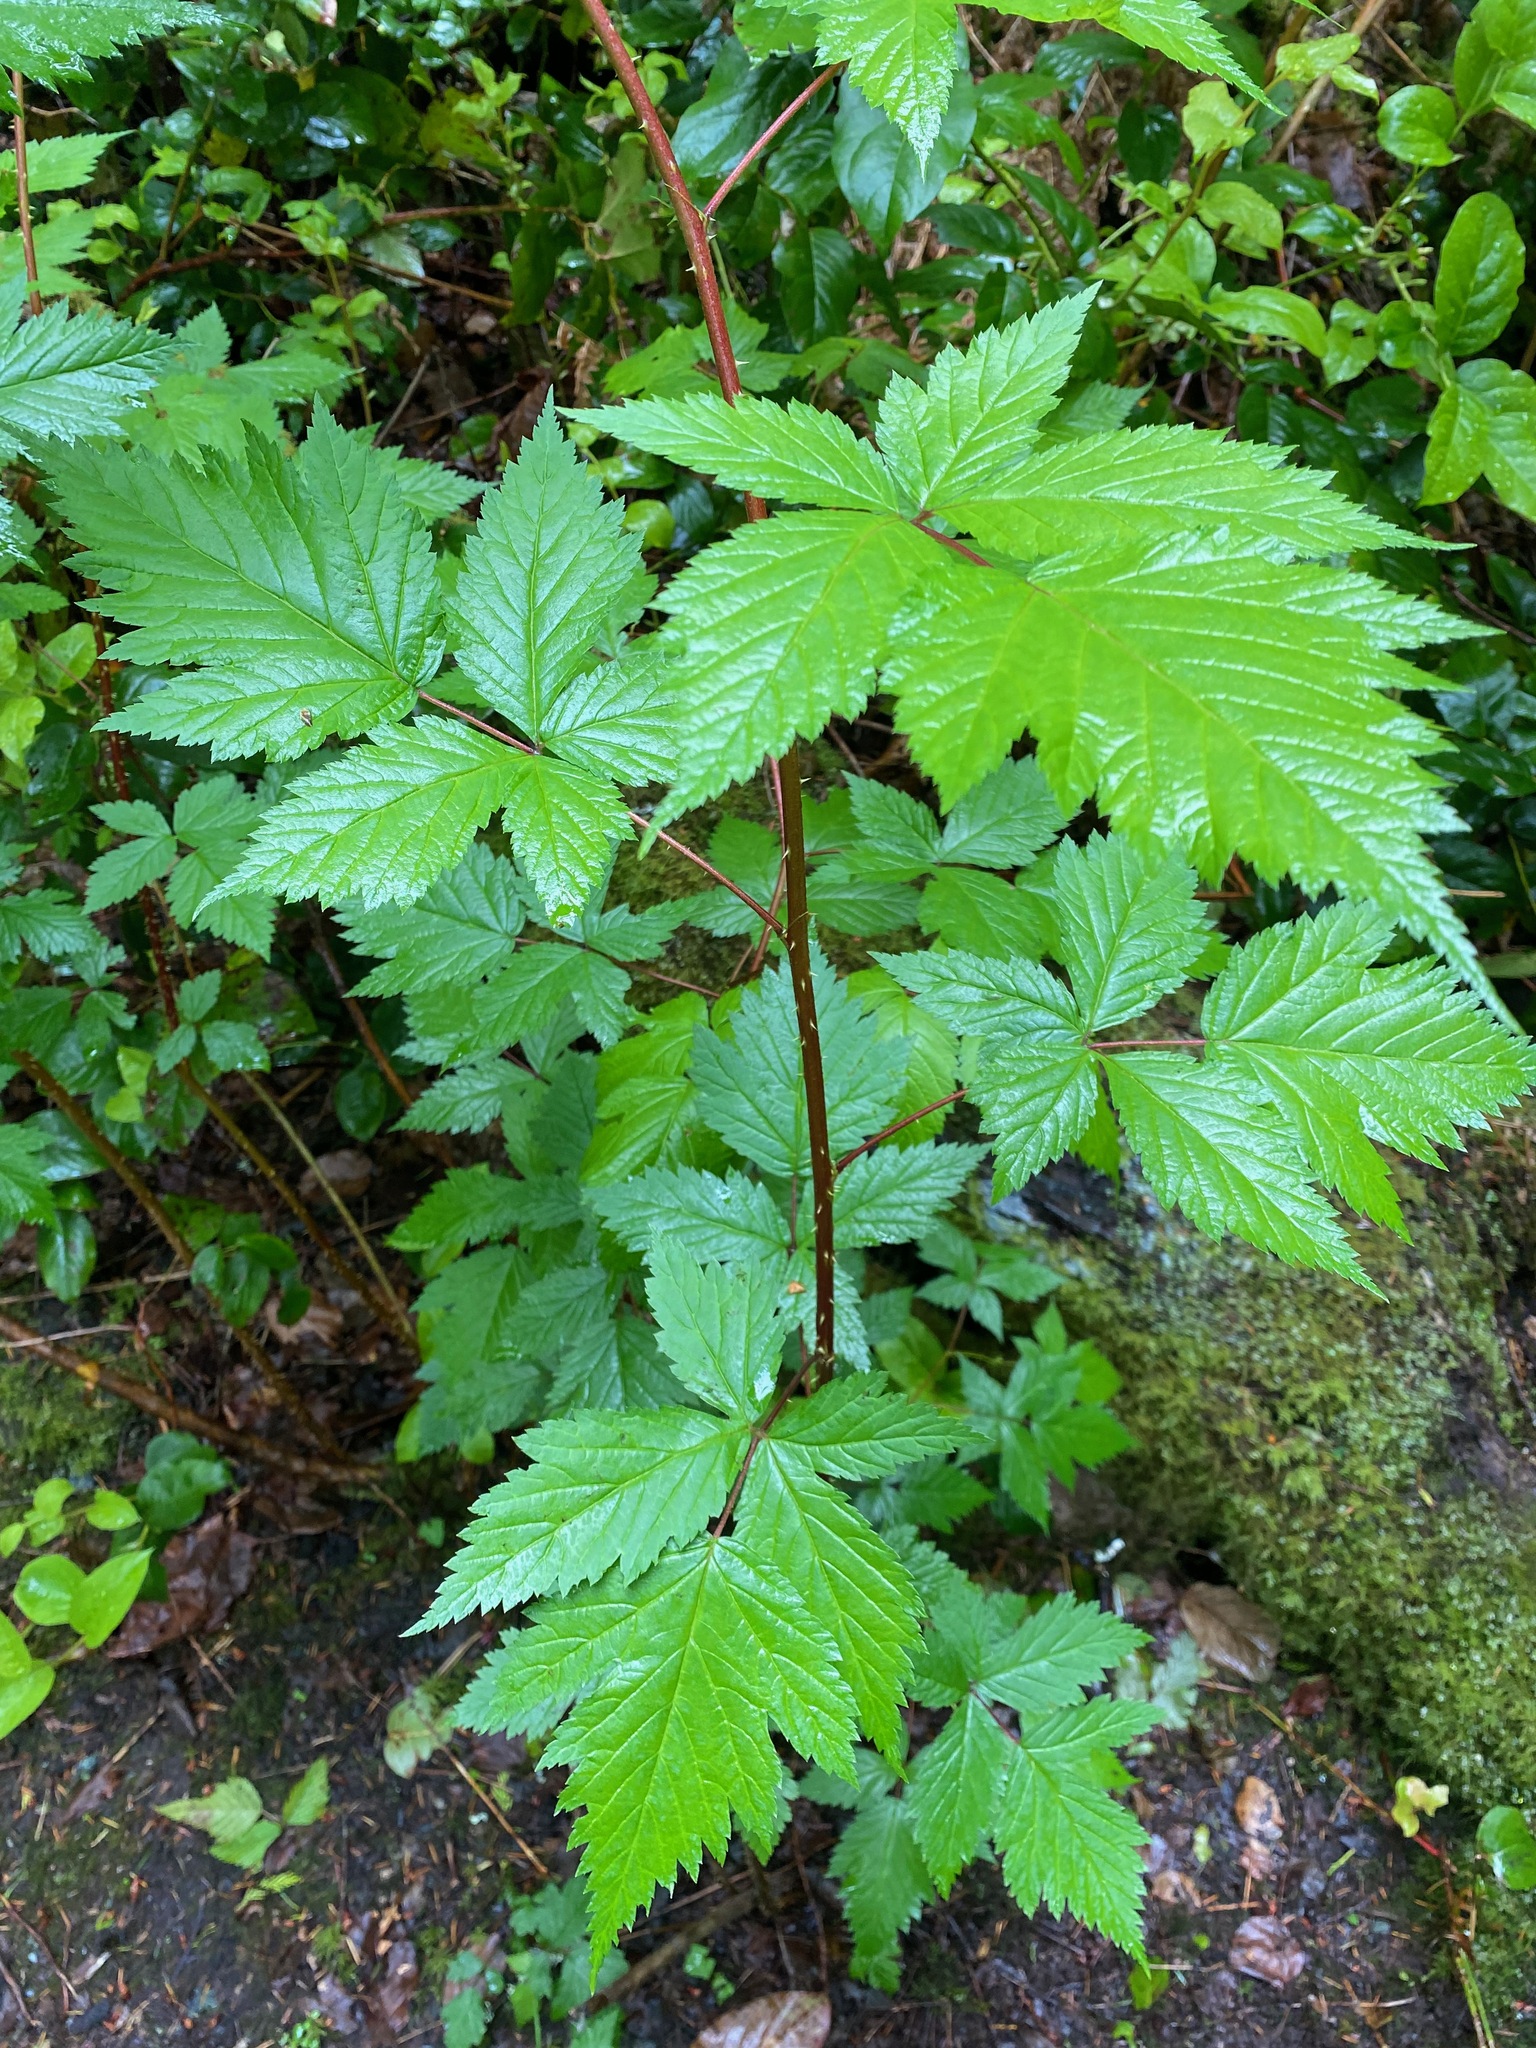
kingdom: Plantae
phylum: Tracheophyta
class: Magnoliopsida
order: Rosales
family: Rosaceae
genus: Rubus
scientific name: Rubus spectabilis
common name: Salmonberry
